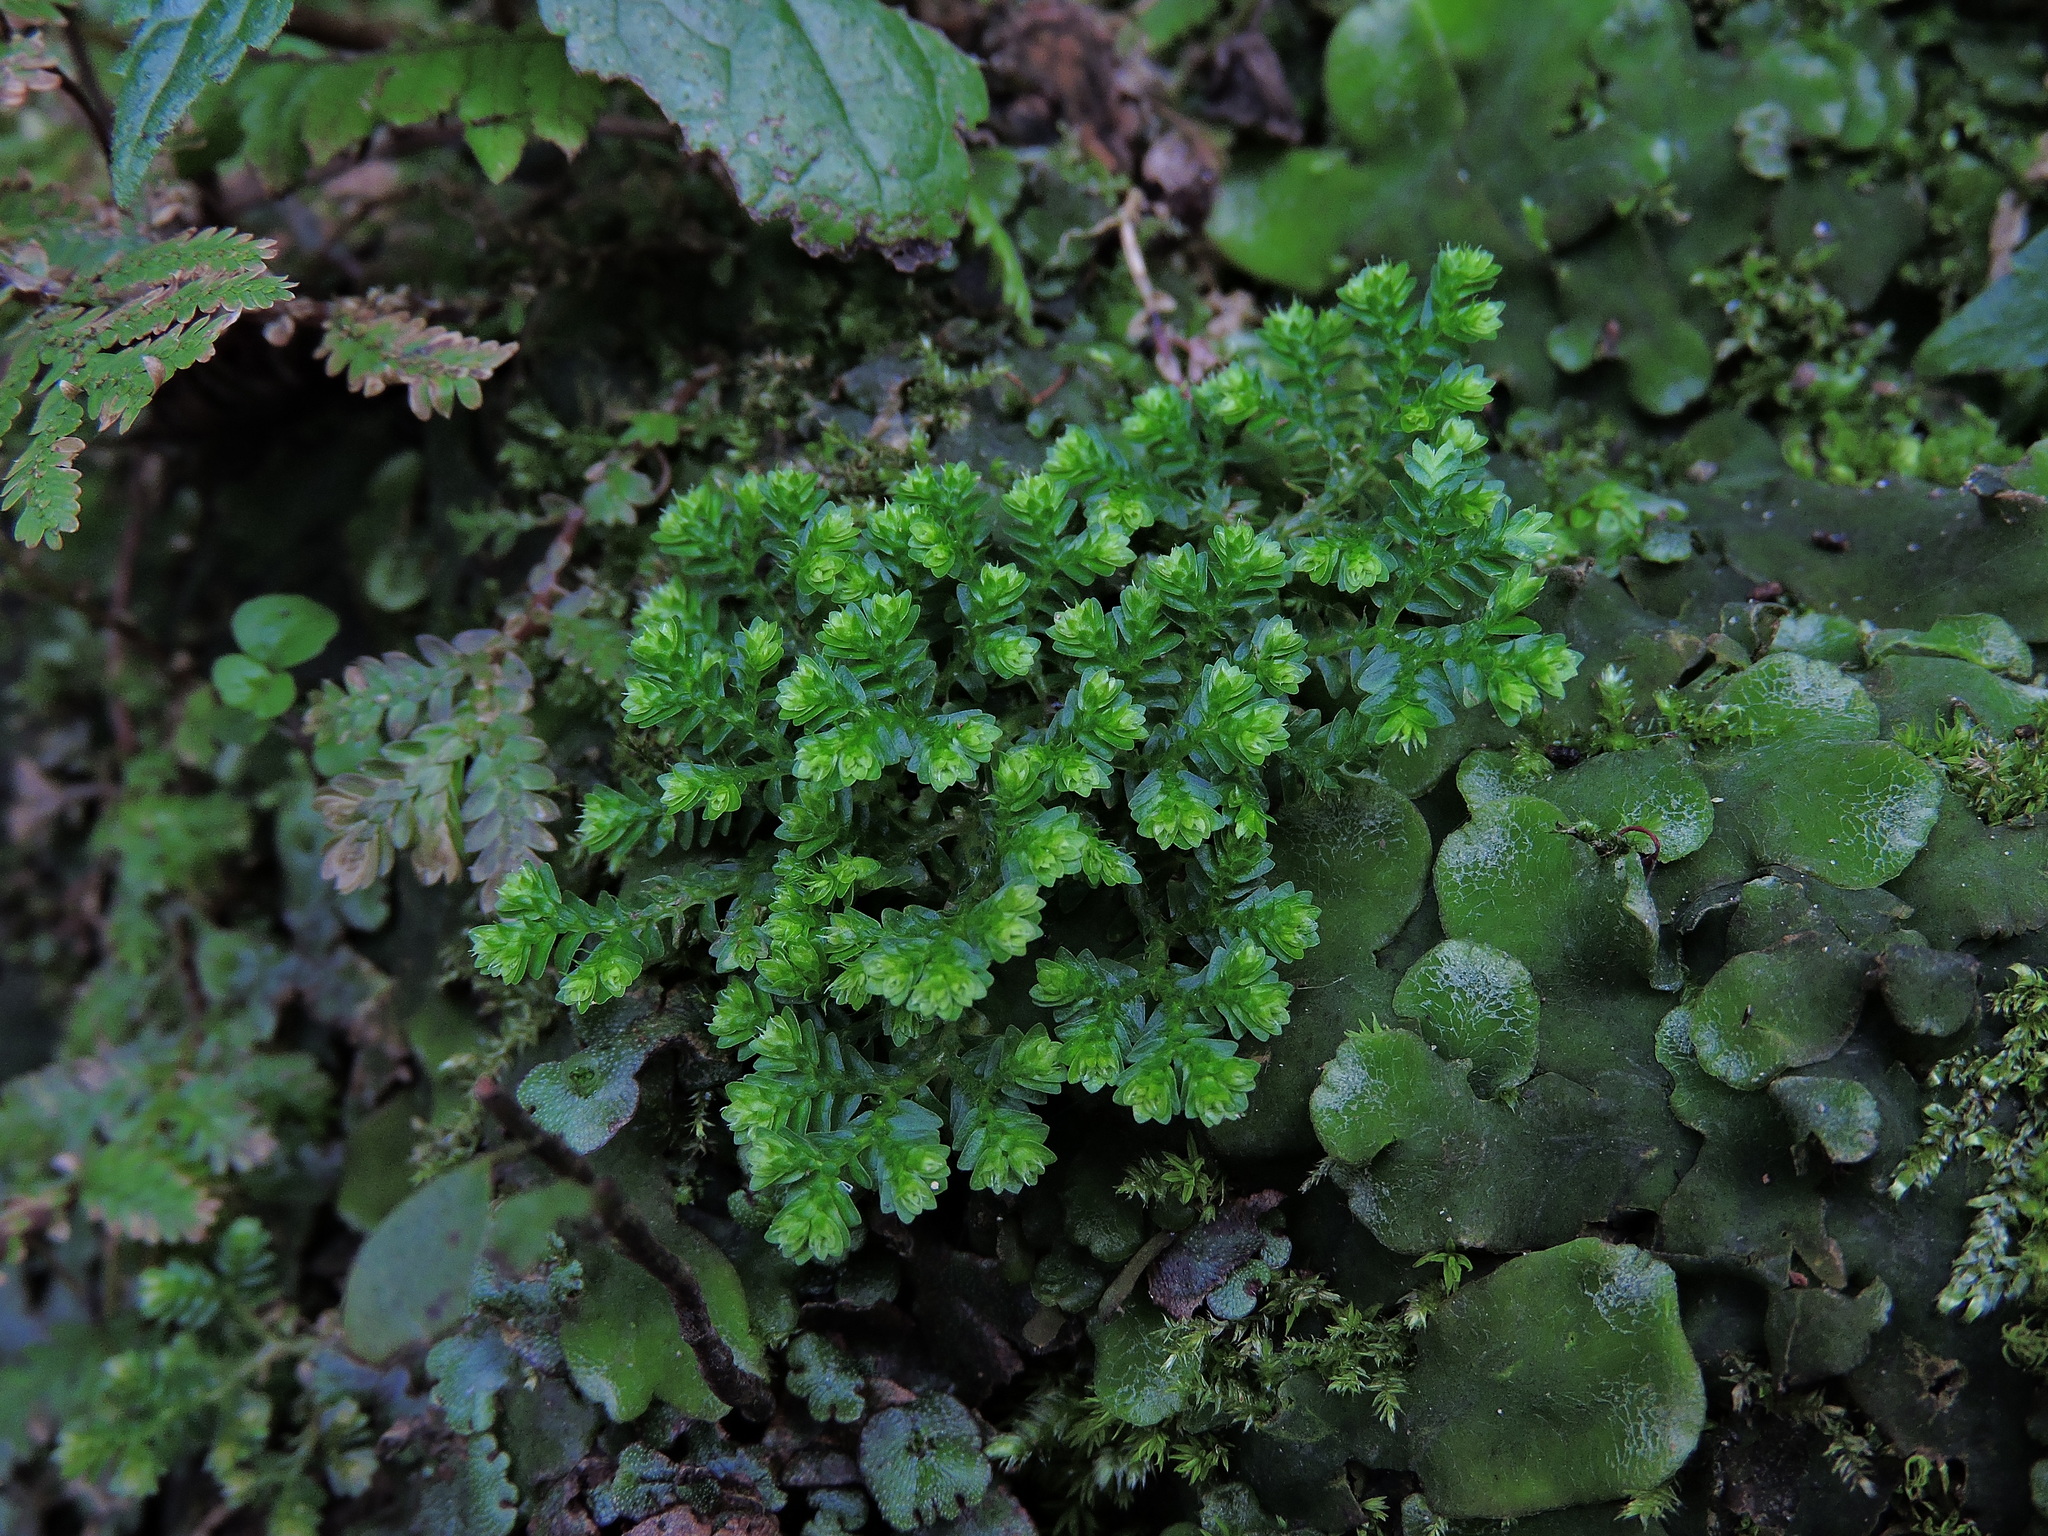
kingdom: Plantae
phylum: Tracheophyta
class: Lycopodiopsida
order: Selaginellales
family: Selaginellaceae
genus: Selaginella
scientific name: Selaginella aristata
